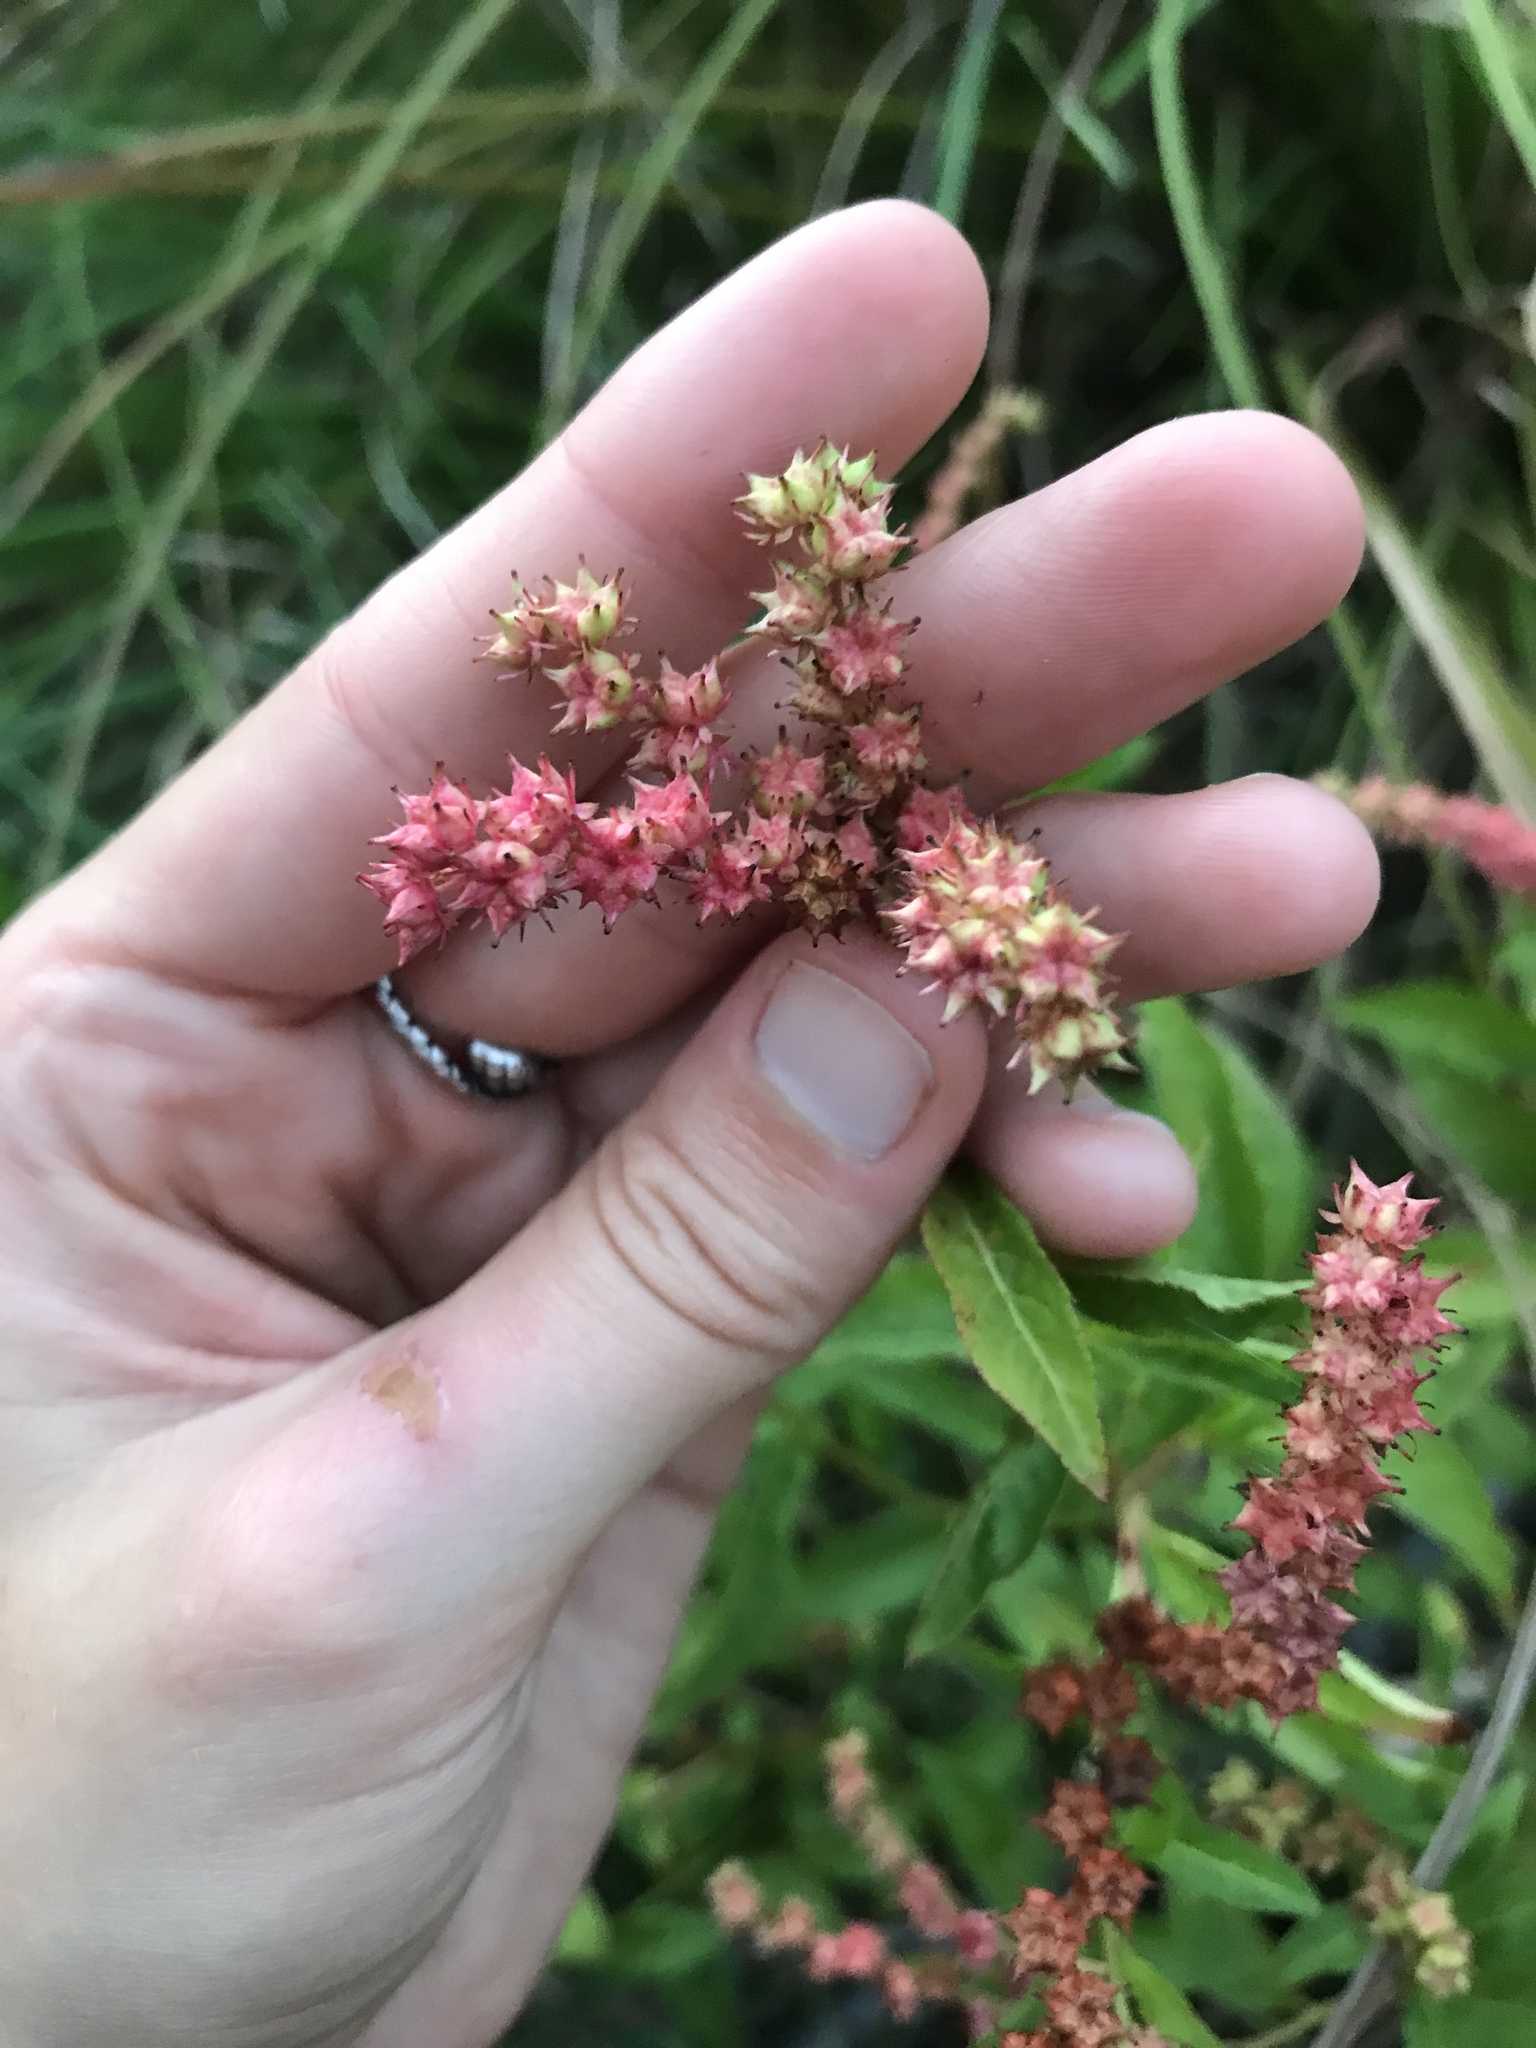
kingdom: Plantae
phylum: Tracheophyta
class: Magnoliopsida
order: Saxifragales
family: Penthoraceae
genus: Penthorum
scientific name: Penthorum sedoides
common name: Ditch stonecrop
